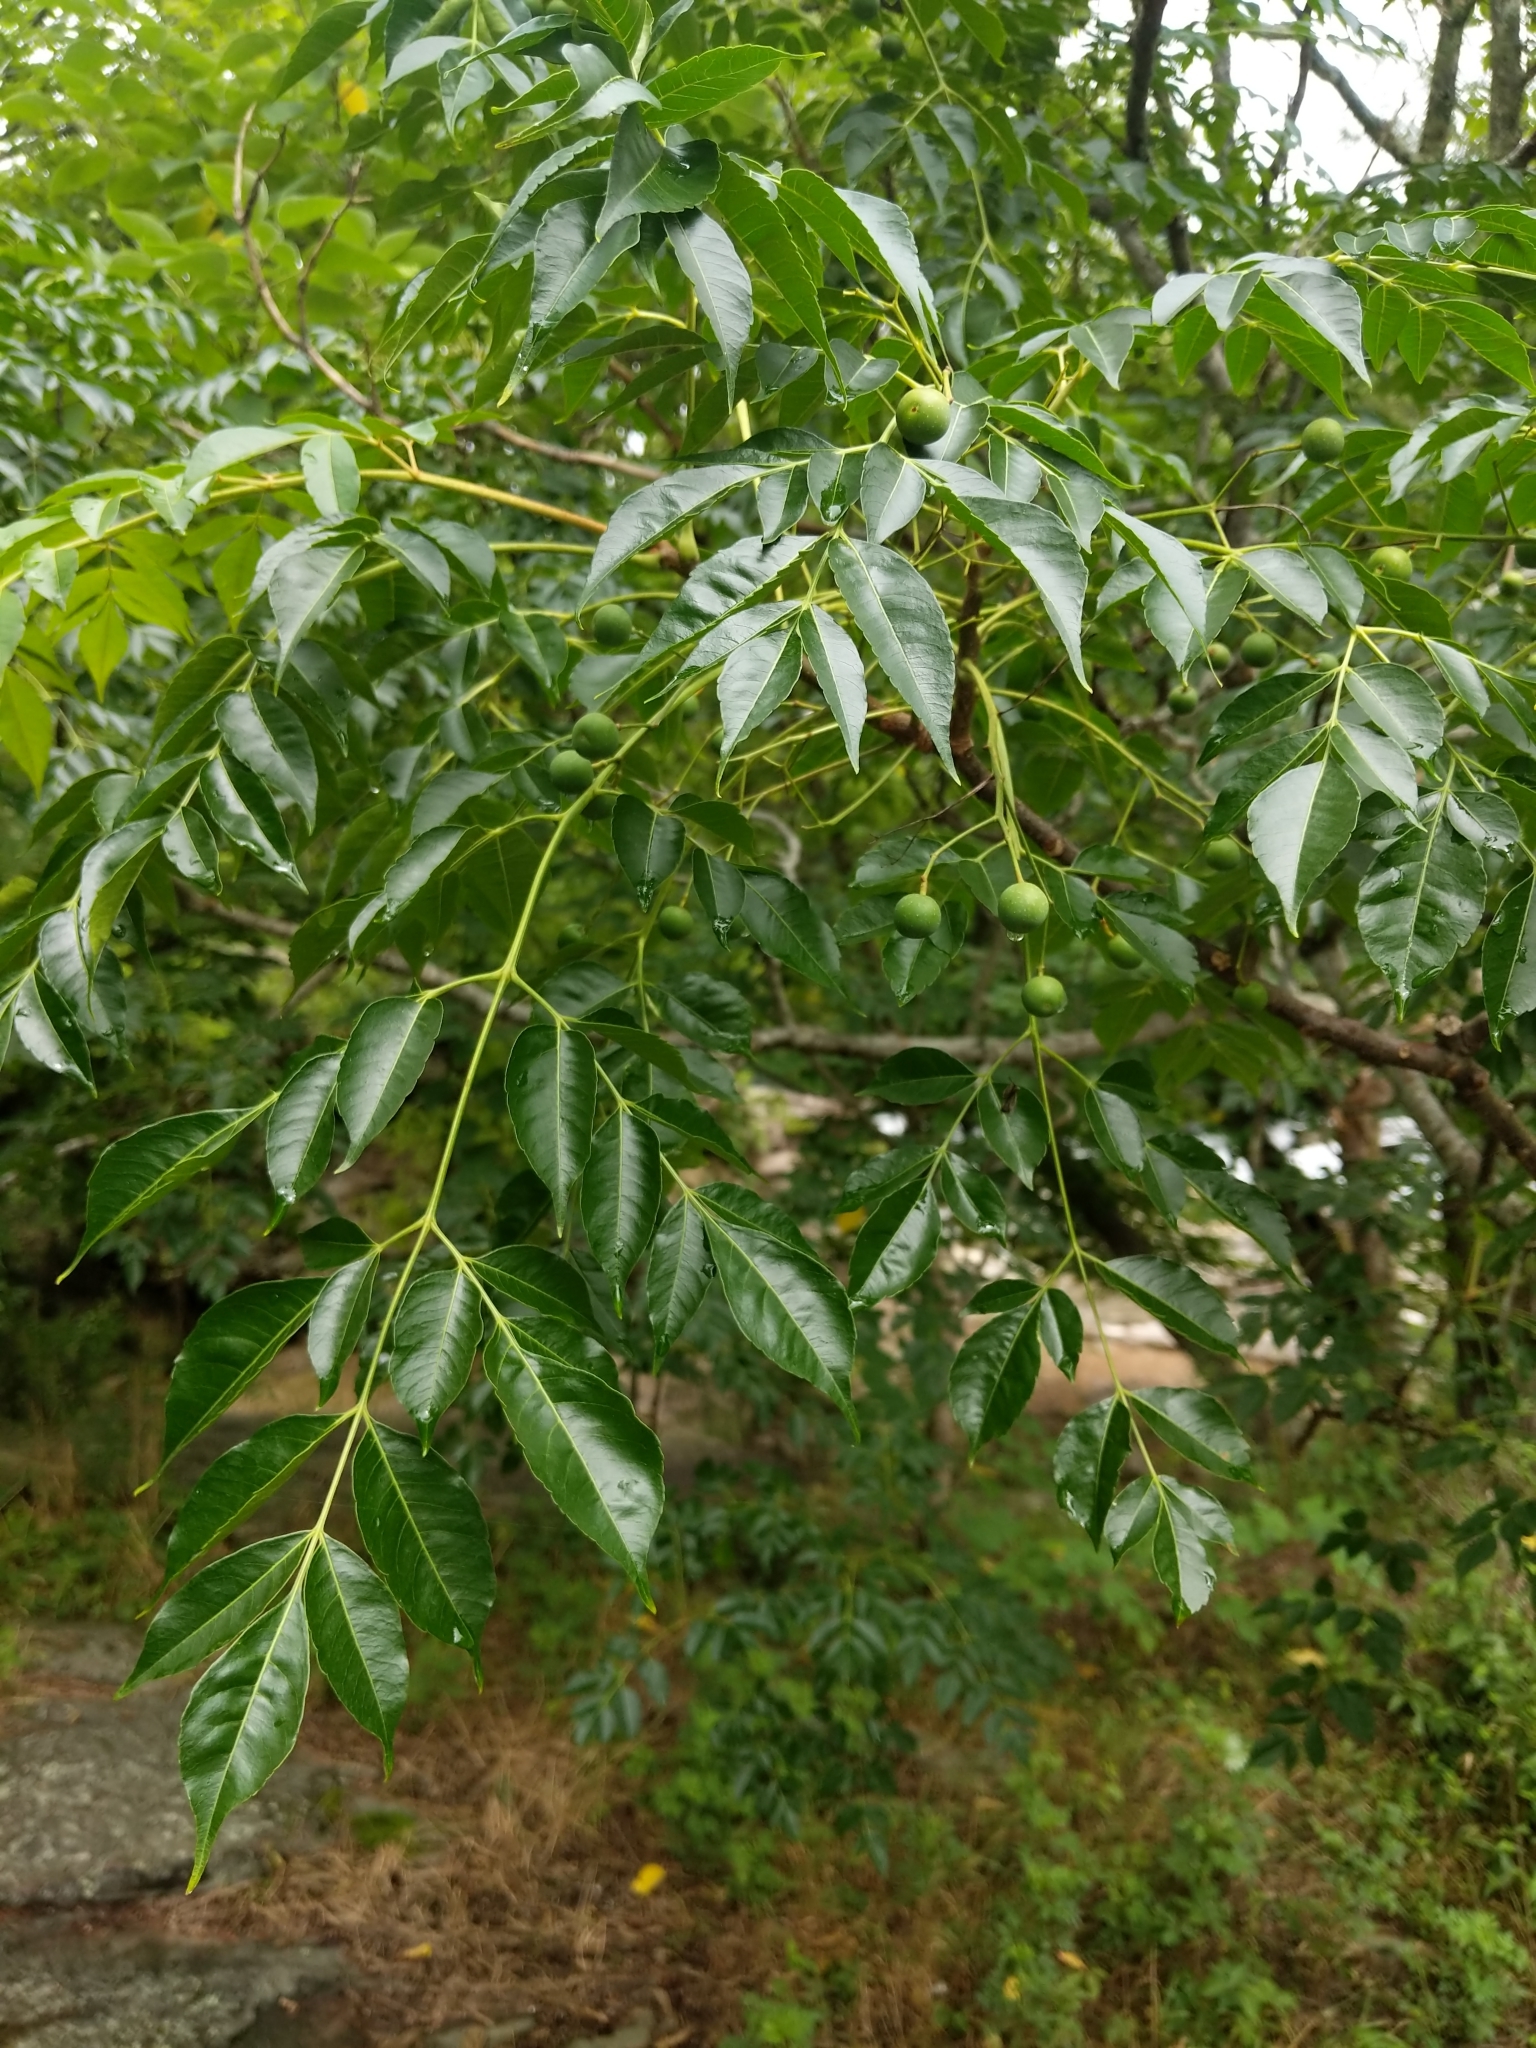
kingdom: Plantae
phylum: Tracheophyta
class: Magnoliopsida
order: Sapindales
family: Meliaceae
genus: Melia
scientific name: Melia azedarach
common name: Chinaberrytree
